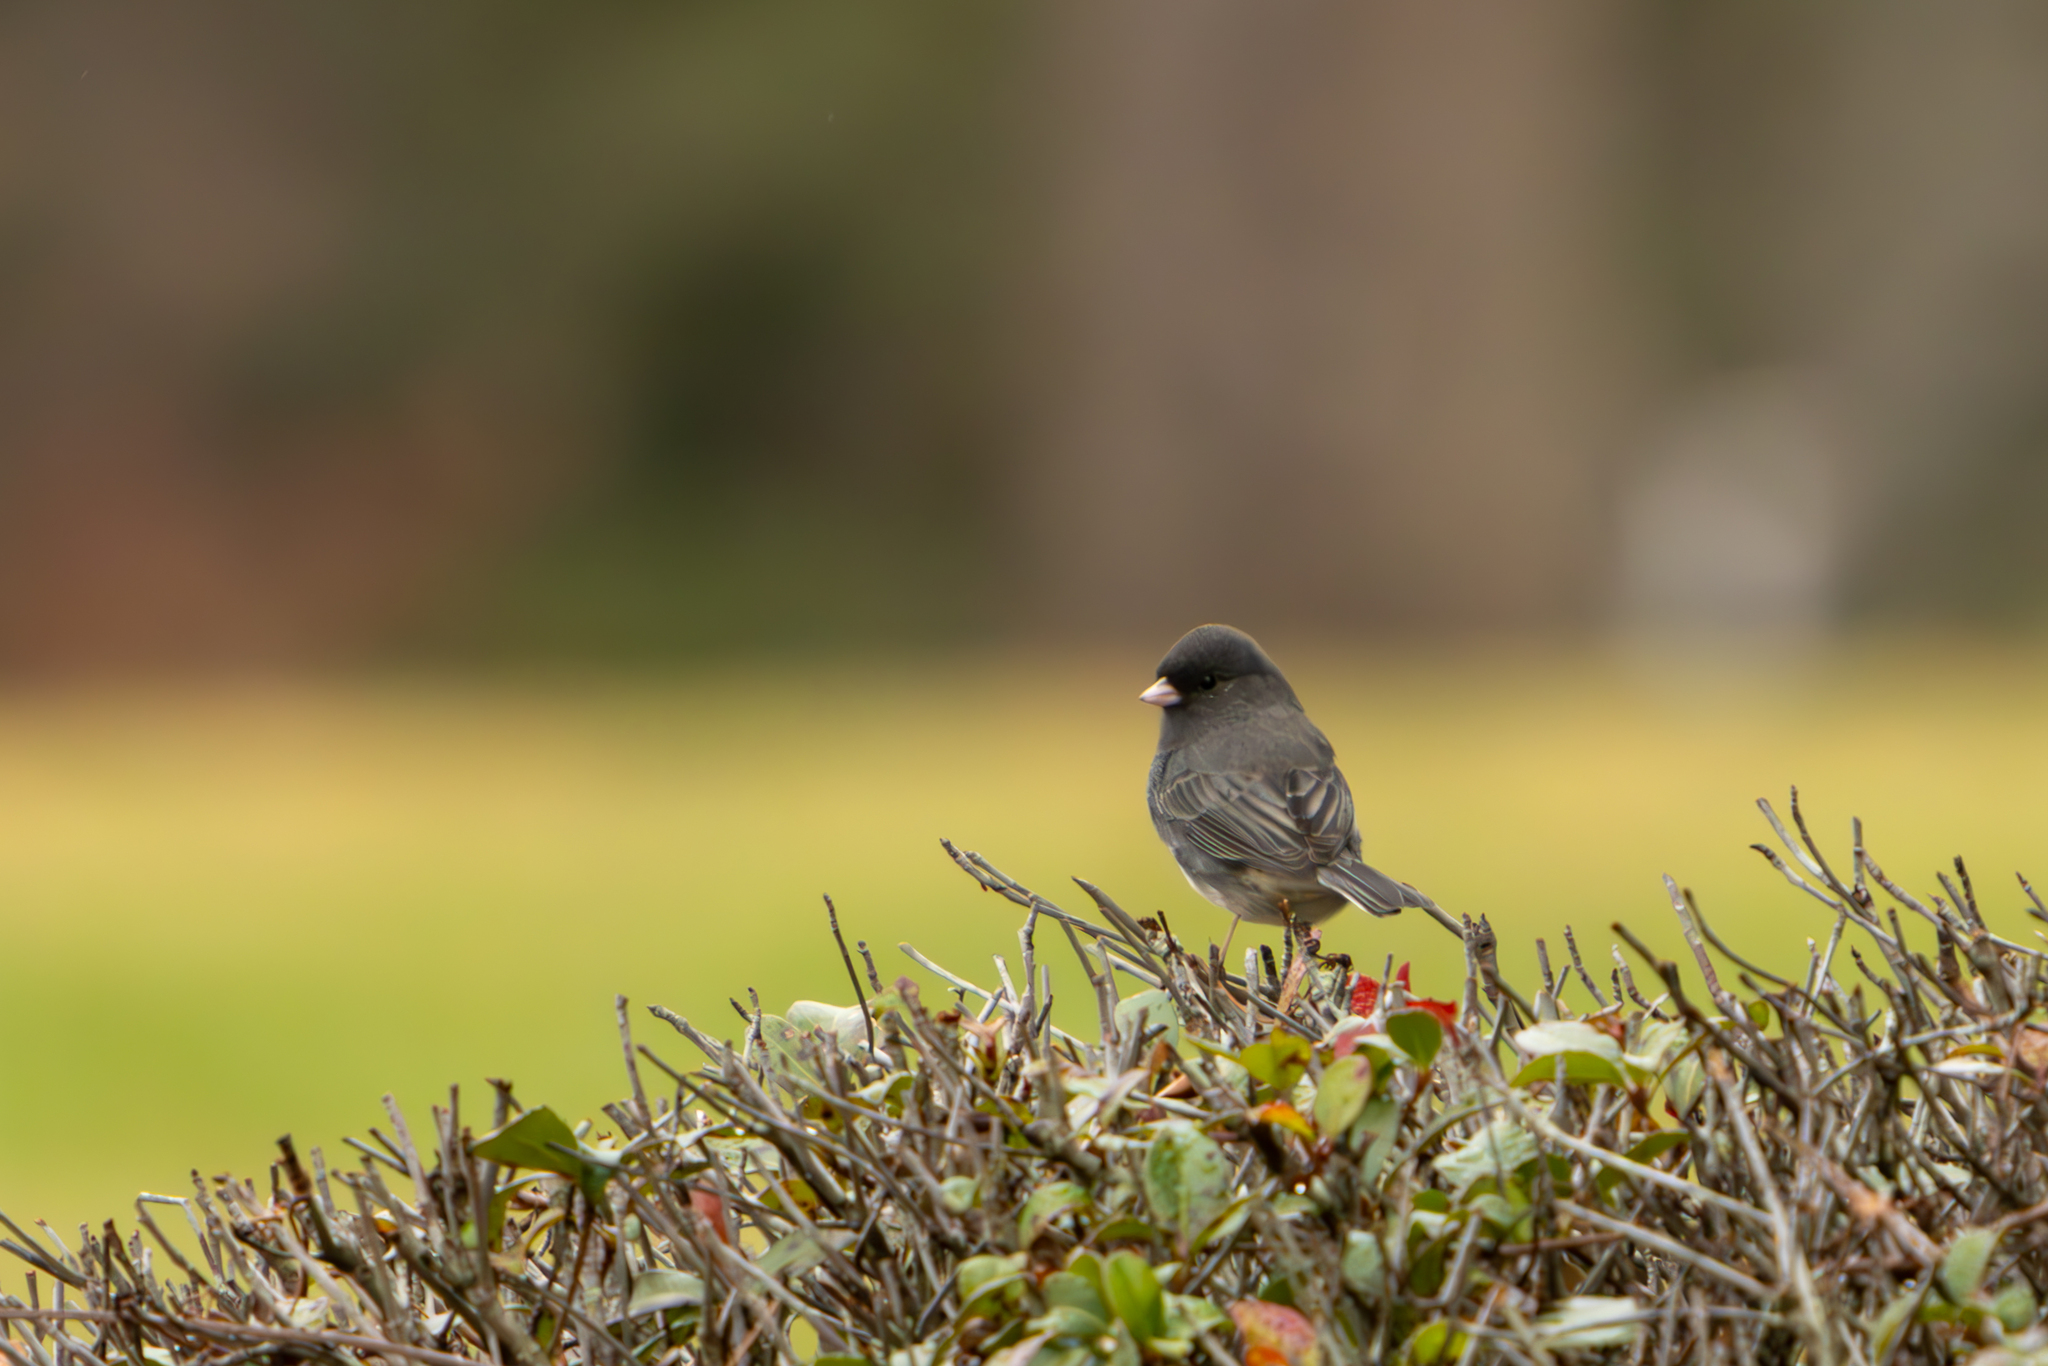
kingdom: Animalia
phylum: Chordata
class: Aves
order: Passeriformes
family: Passerellidae
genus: Junco
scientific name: Junco hyemalis
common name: Dark-eyed junco
